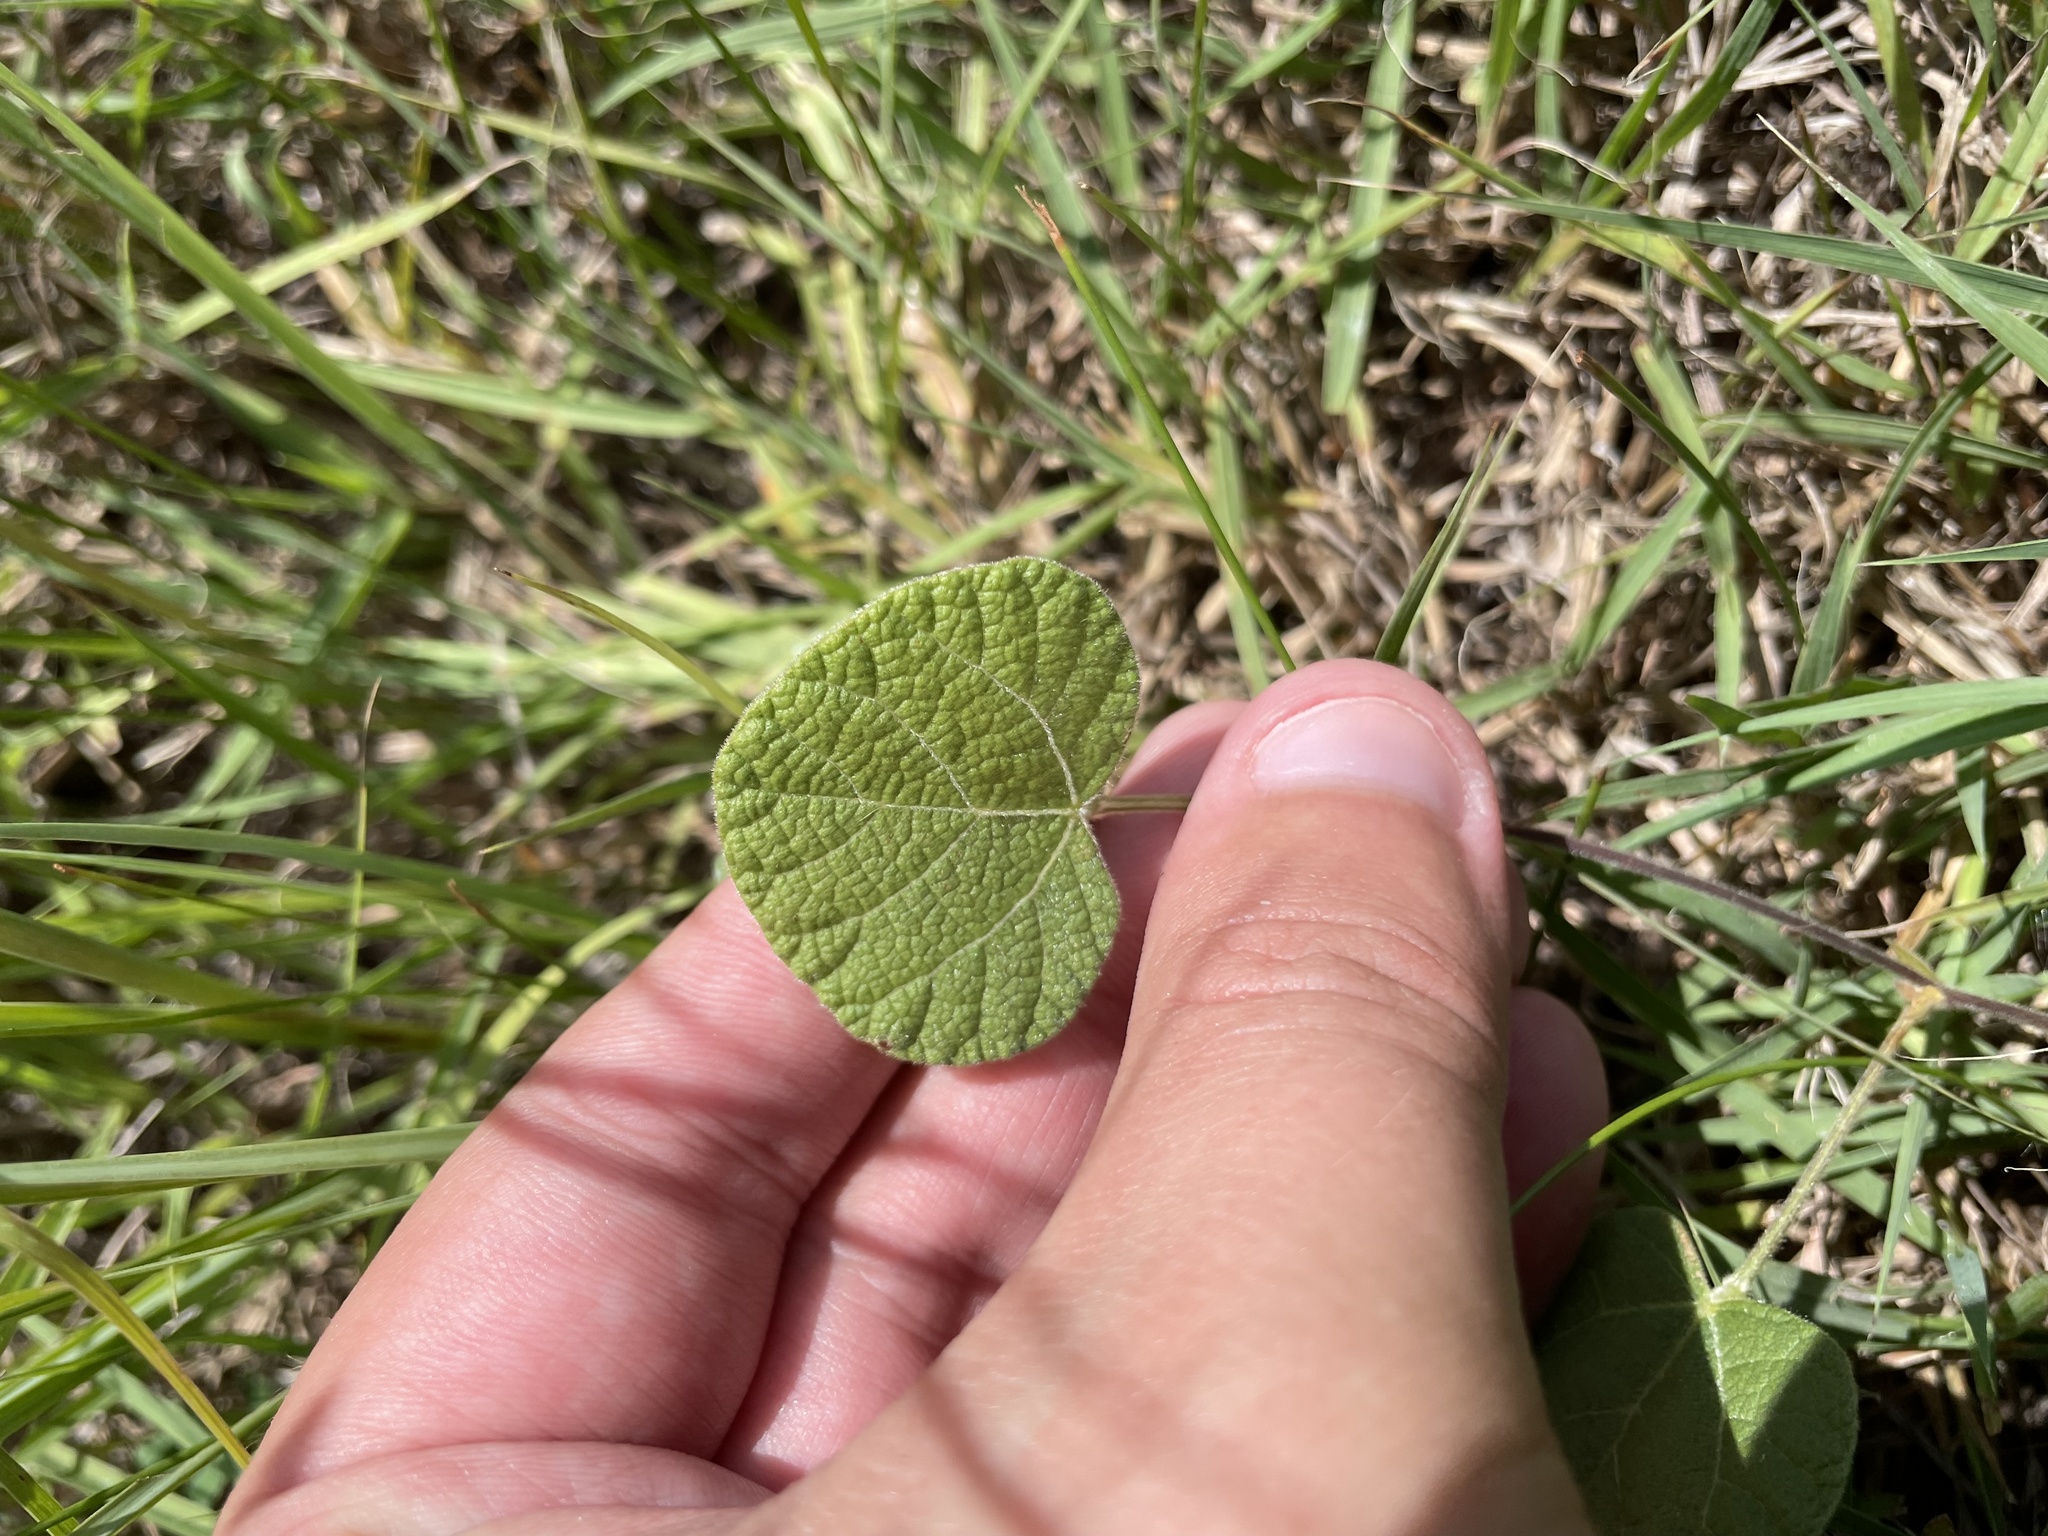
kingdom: Plantae
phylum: Tracheophyta
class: Magnoliopsida
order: Fabales
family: Fabaceae
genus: Rhynchosia
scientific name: Rhynchosia americana
